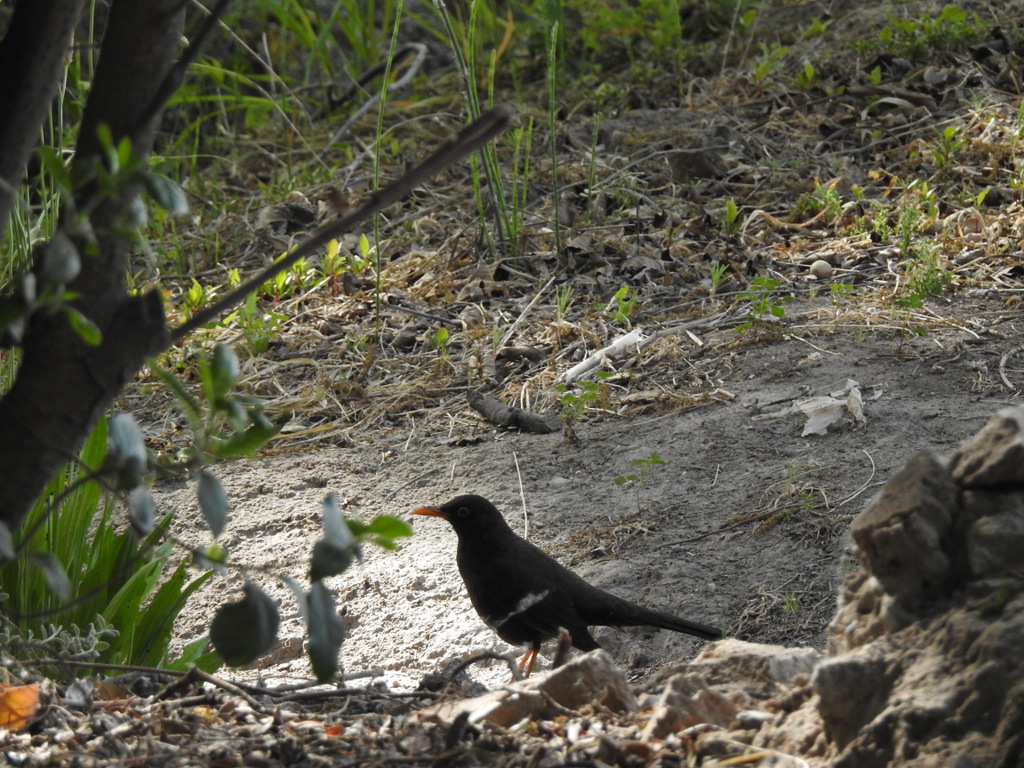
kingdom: Animalia
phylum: Chordata
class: Aves
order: Passeriformes
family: Turdidae
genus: Turdus
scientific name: Turdus chiguanco
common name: Chiguanco thrush
